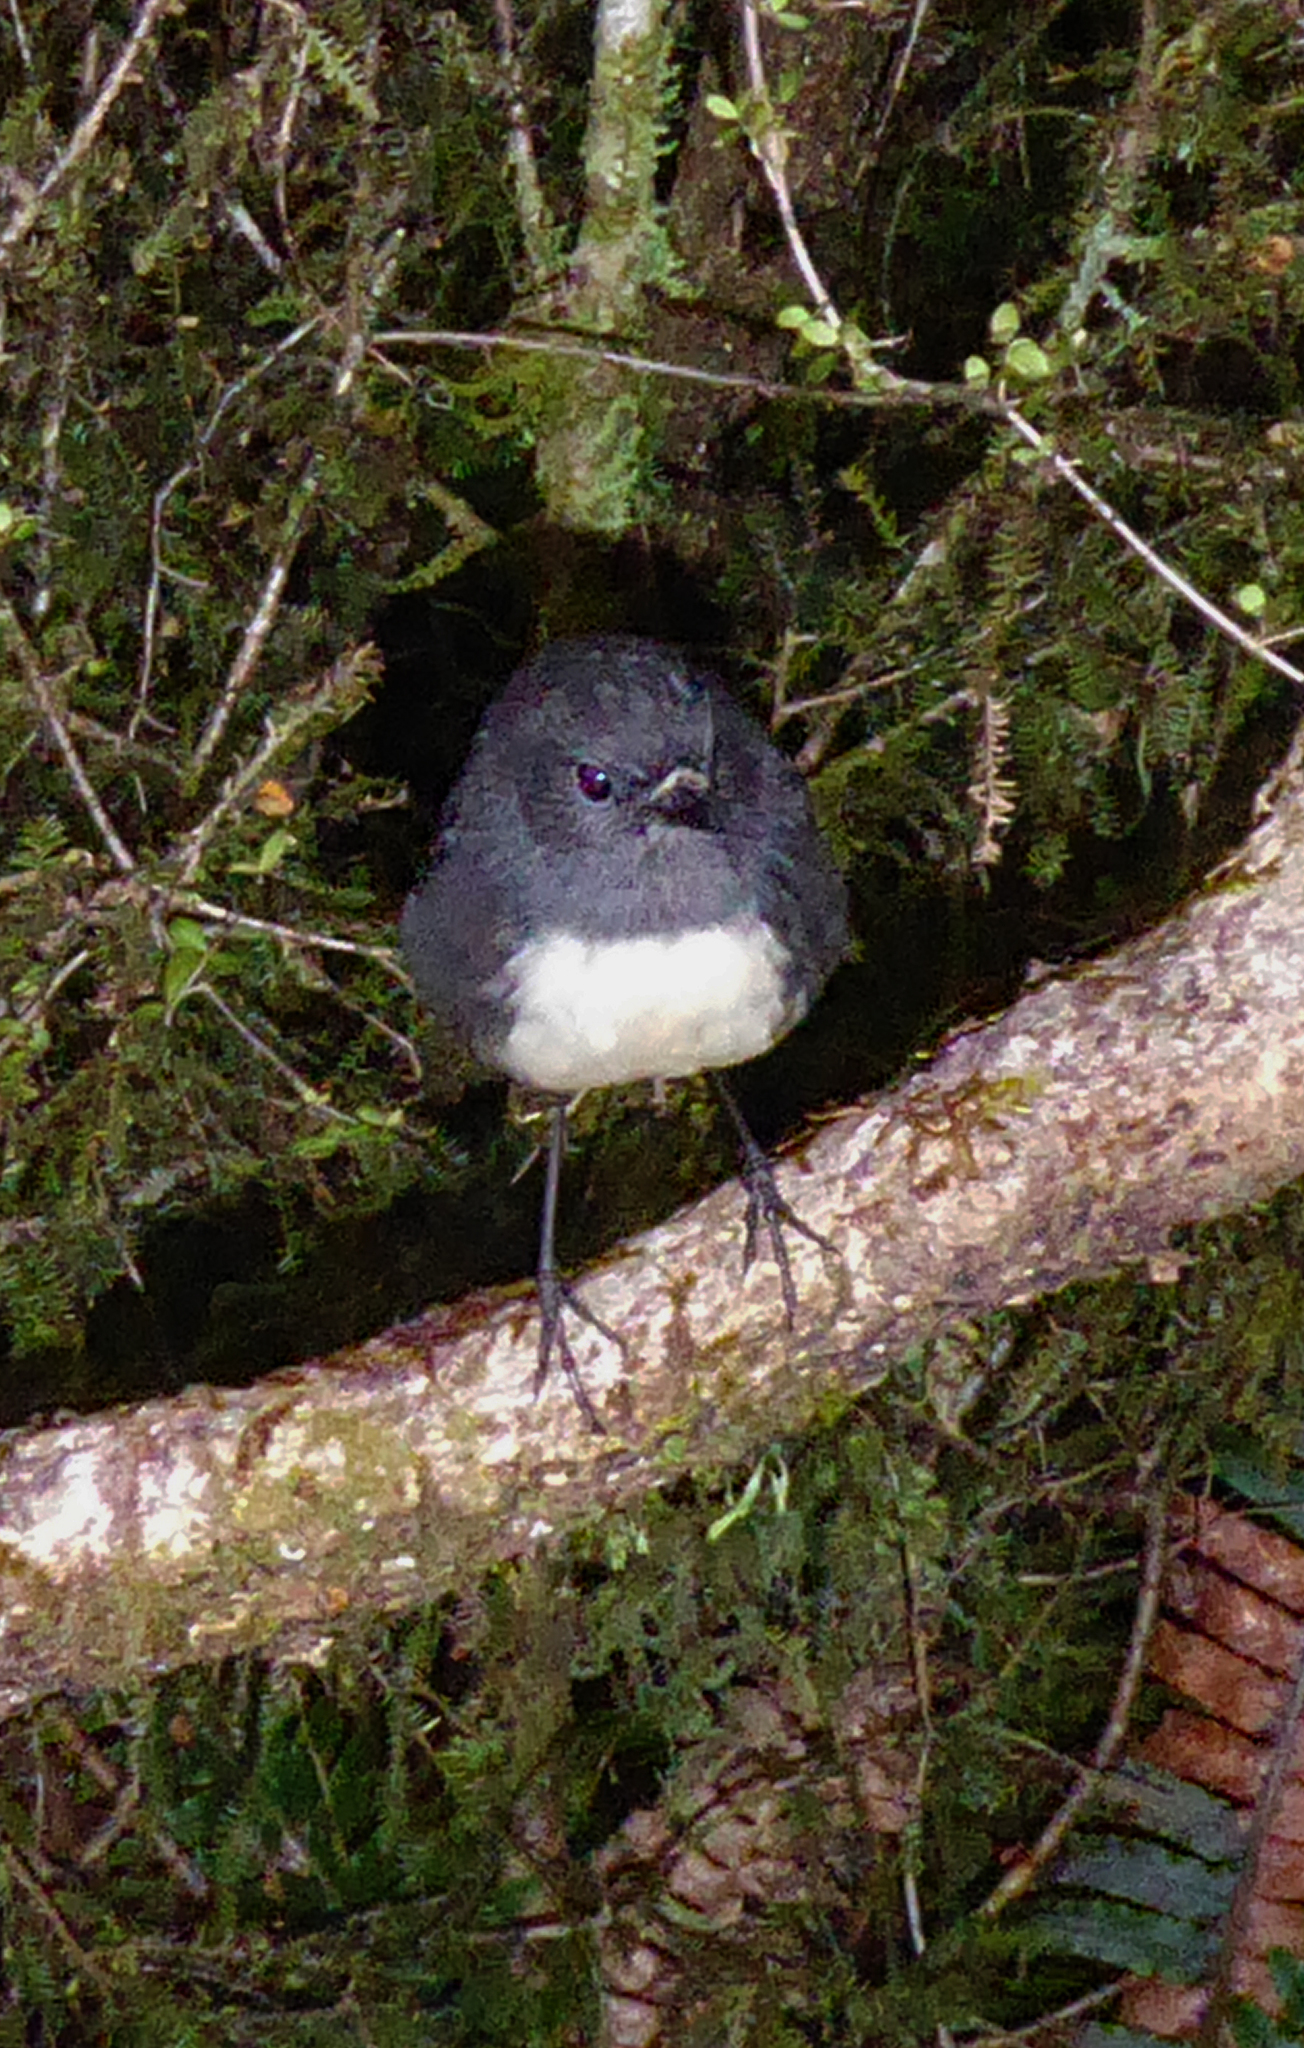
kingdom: Animalia
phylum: Chordata
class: Aves
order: Passeriformes
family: Petroicidae
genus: Petroica
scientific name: Petroica australis
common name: New zealand robin
